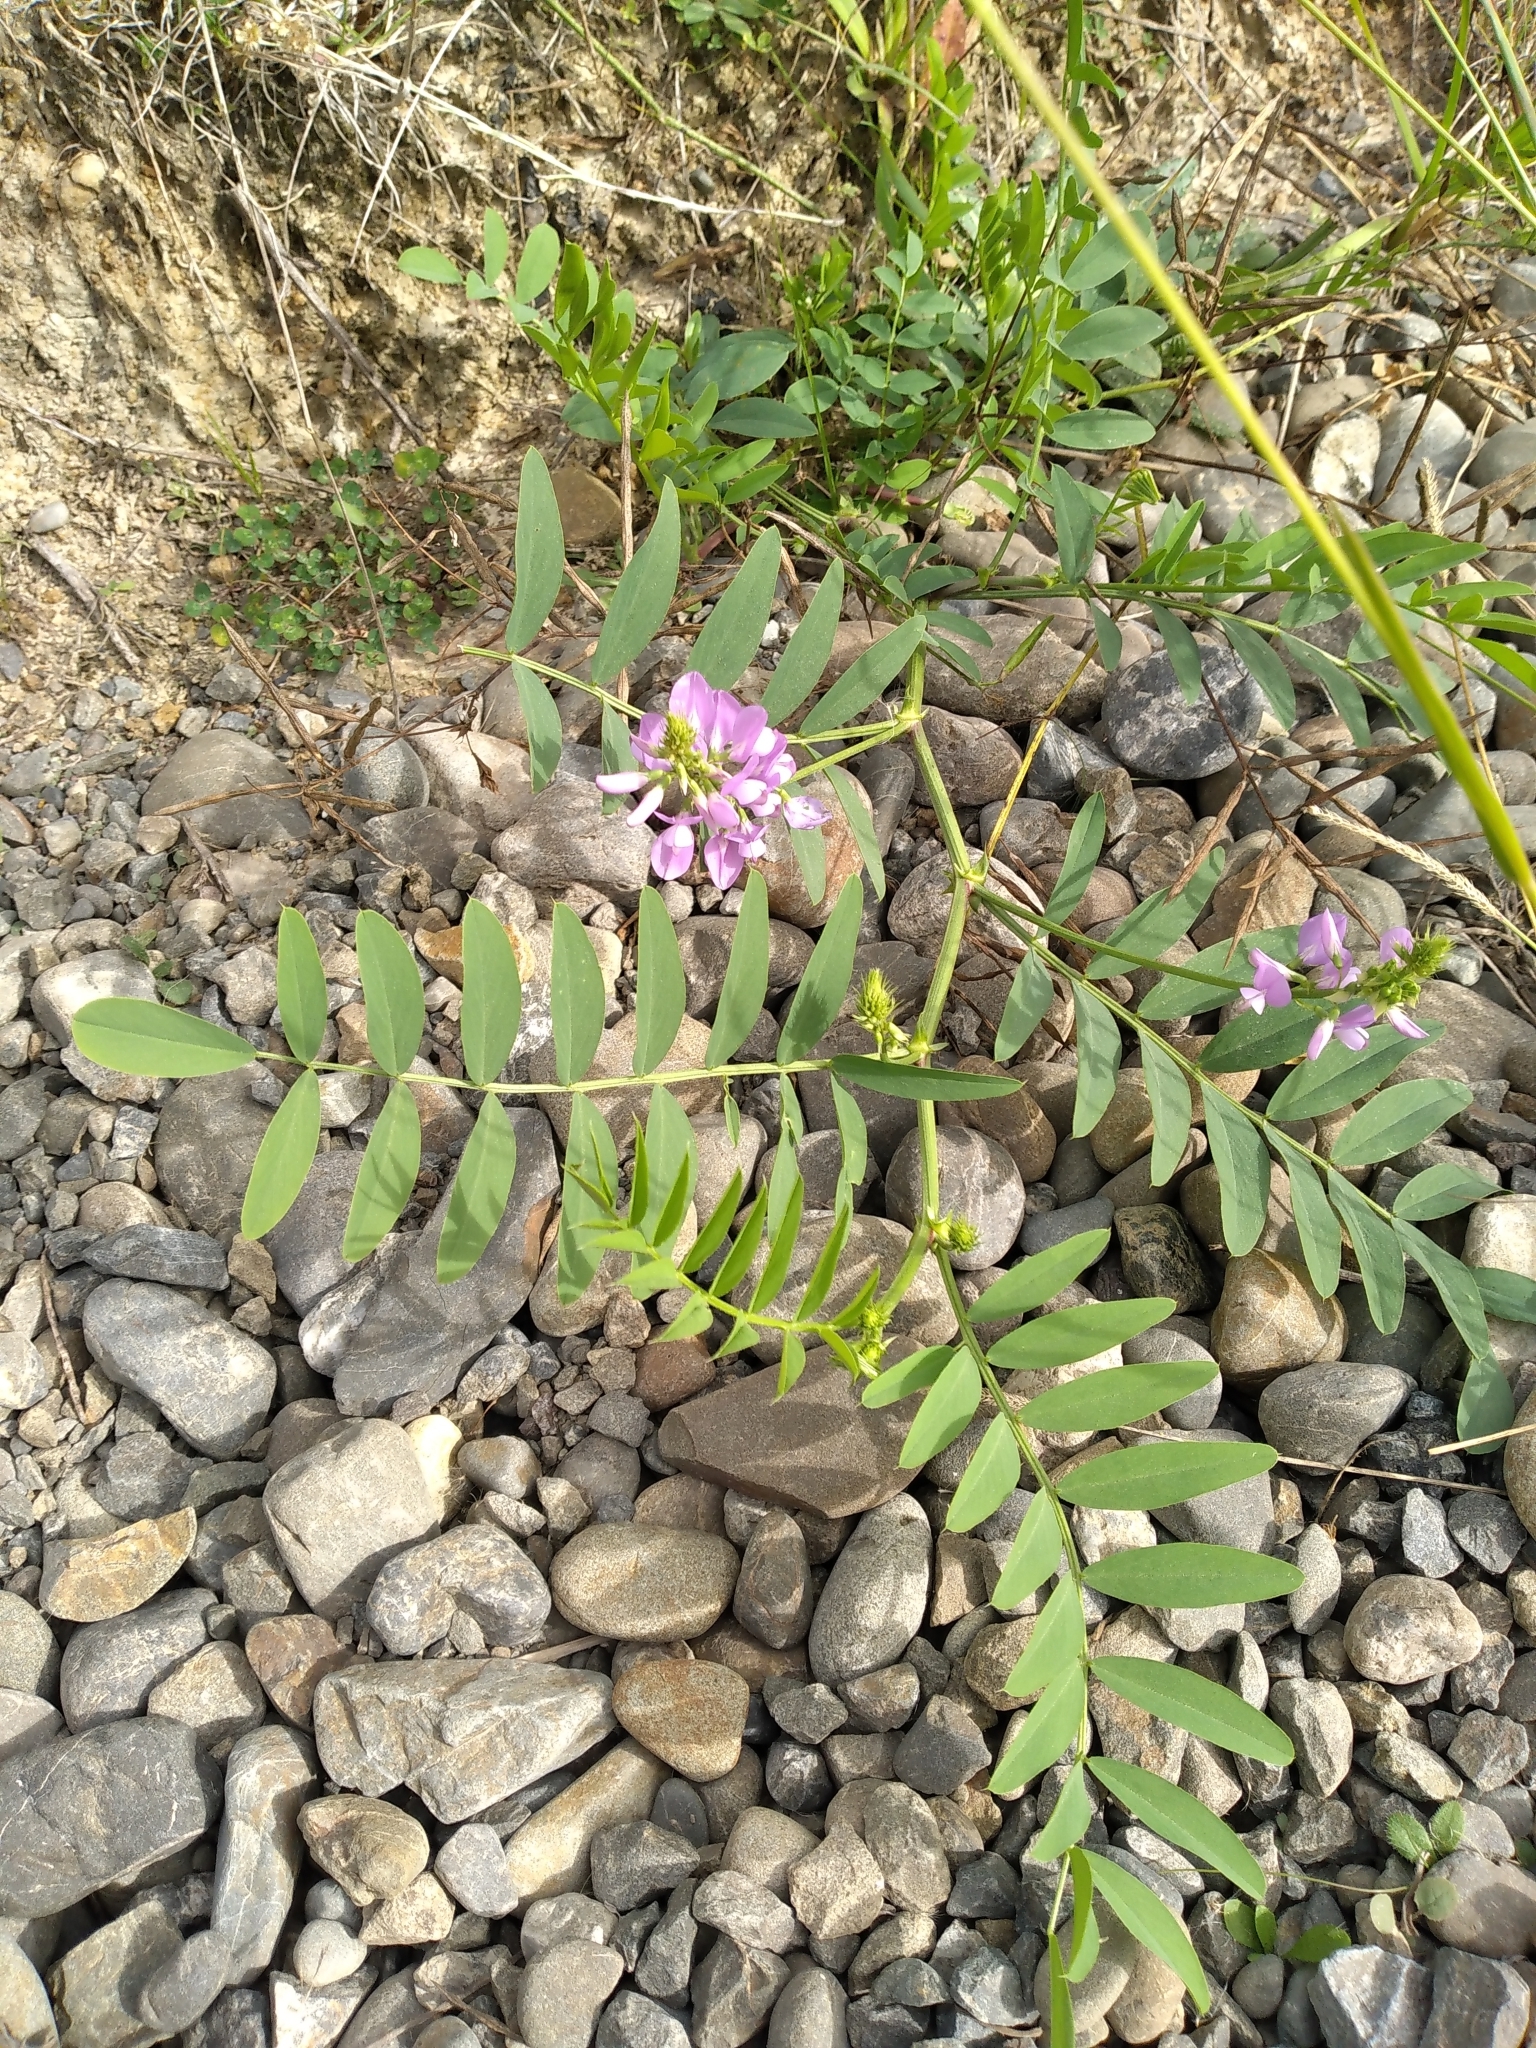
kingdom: Plantae
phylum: Tracheophyta
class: Magnoliopsida
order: Fabales
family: Fabaceae
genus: Galega
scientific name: Galega officinalis
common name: Goat's-rue
